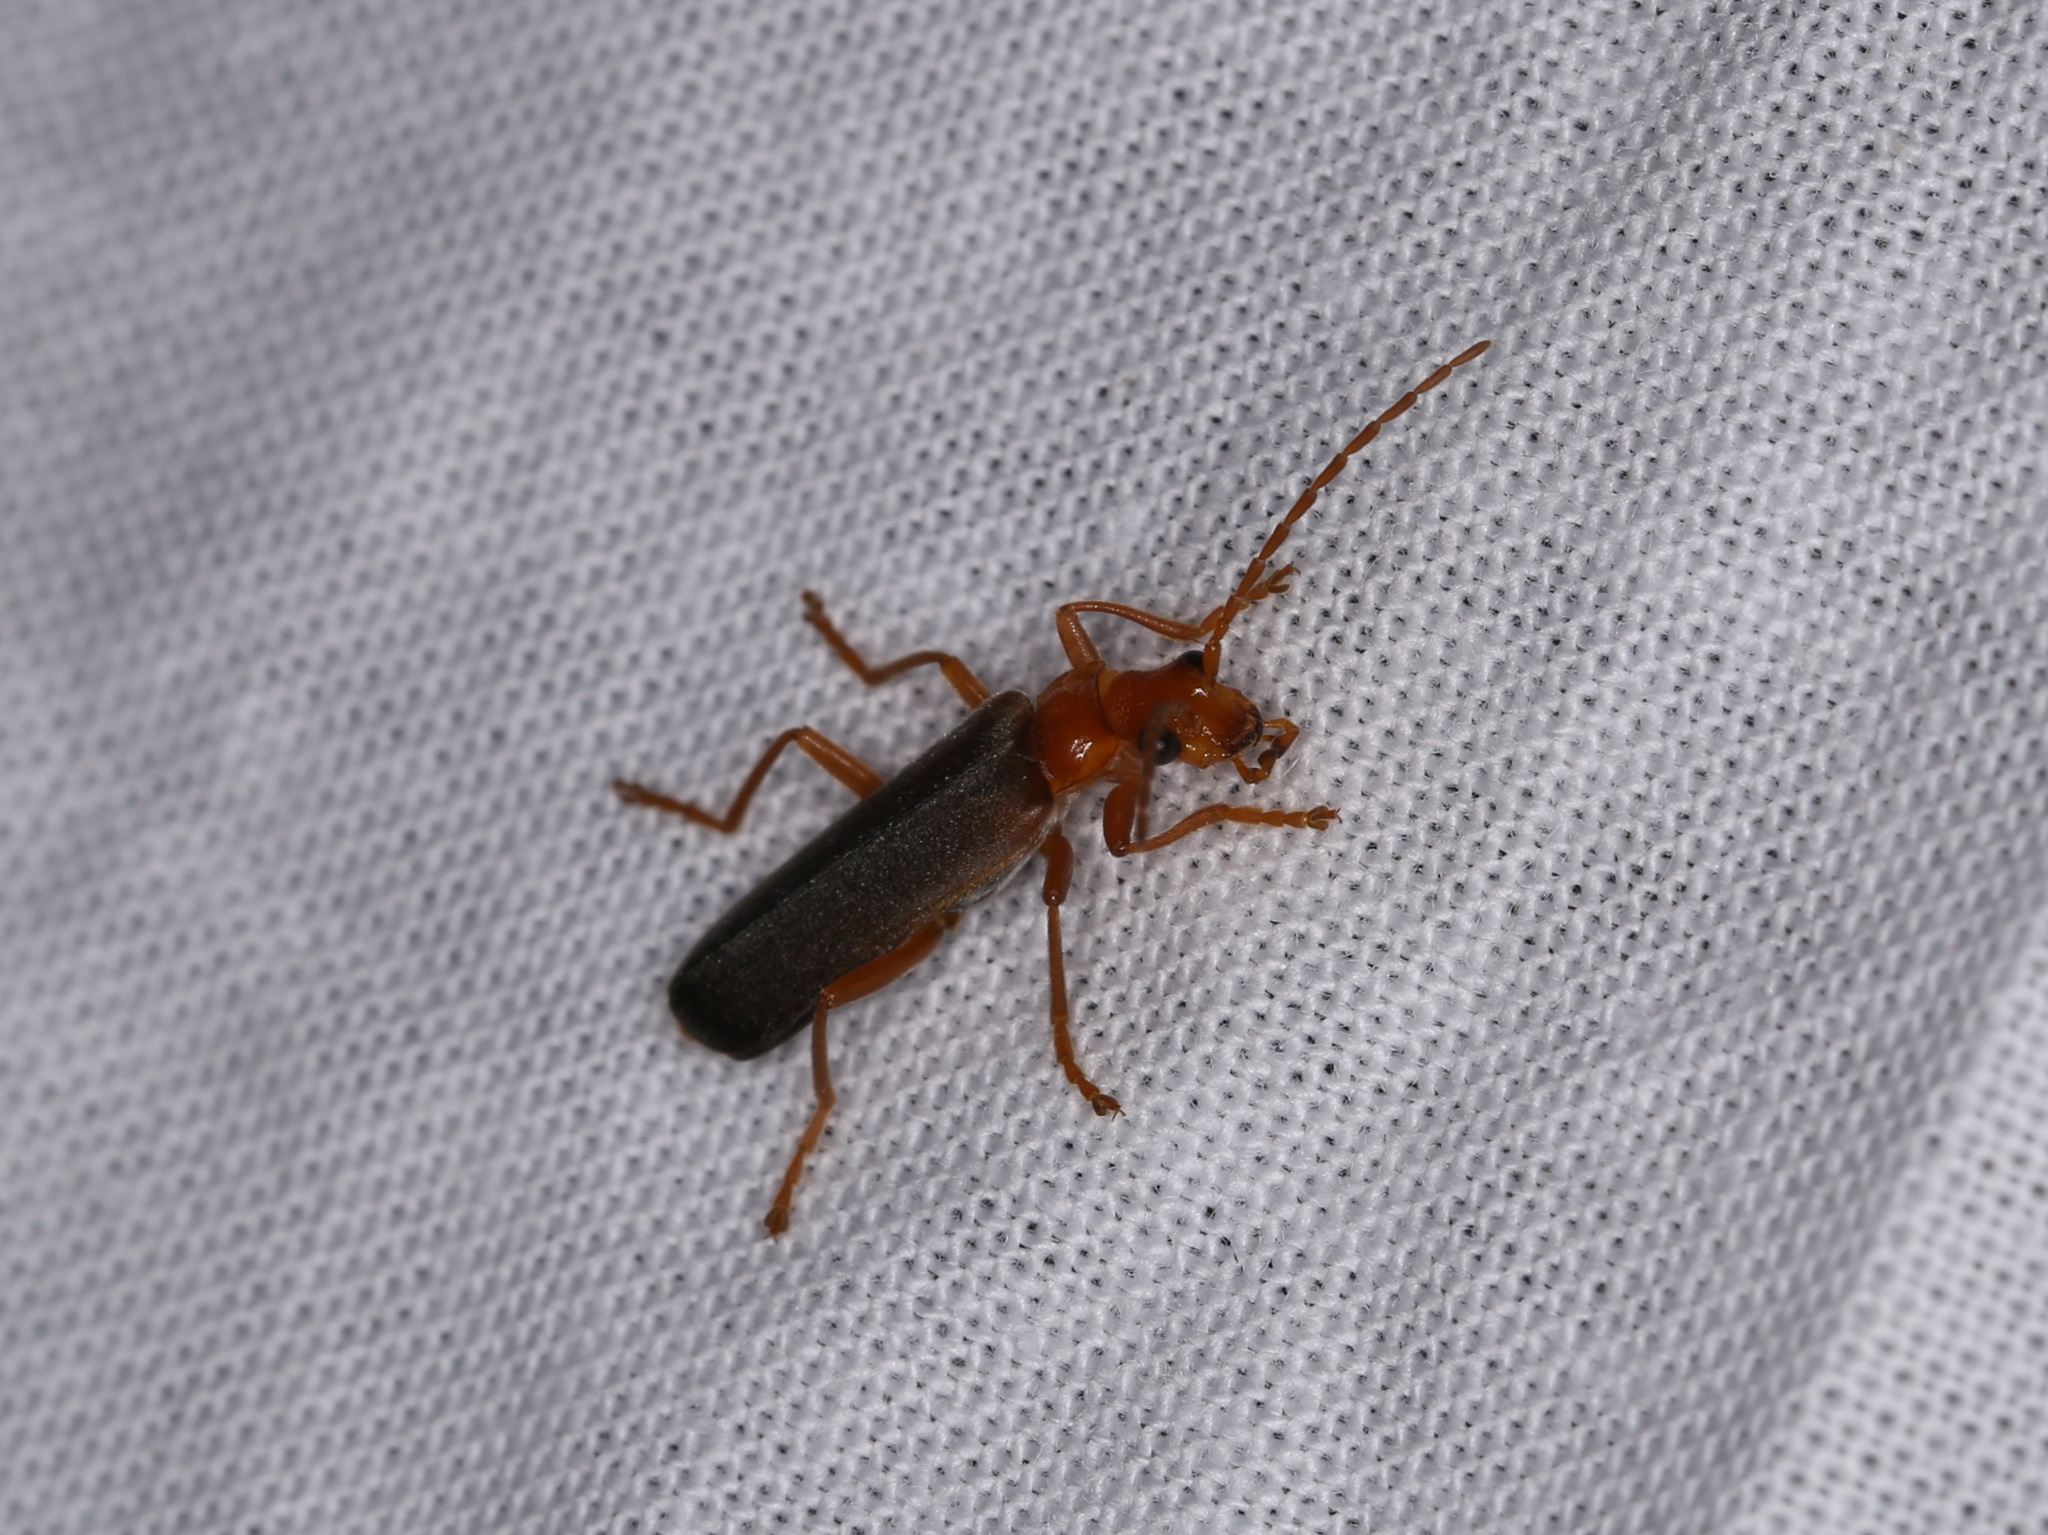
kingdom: Animalia
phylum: Arthropoda
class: Insecta
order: Coleoptera
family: Cantharidae
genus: Podabrus
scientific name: Podabrus pruinosus
